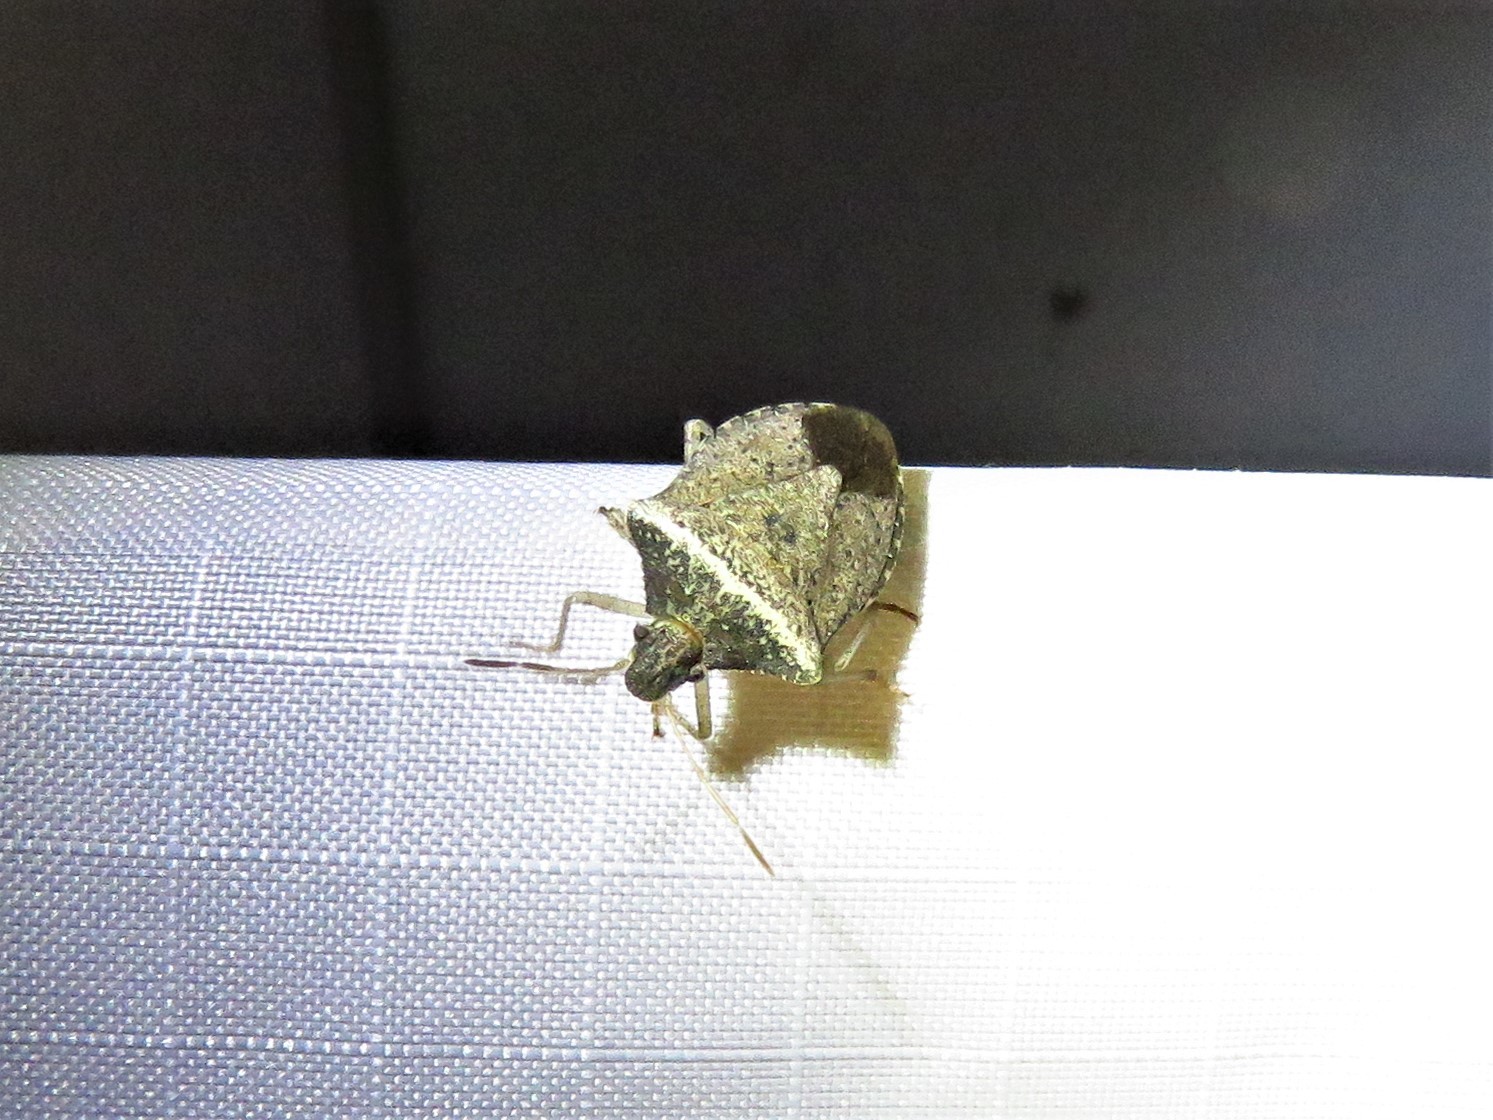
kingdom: Animalia
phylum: Arthropoda
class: Insecta
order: Hemiptera
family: Pentatomidae
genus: Euschistus
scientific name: Euschistus obscurus
